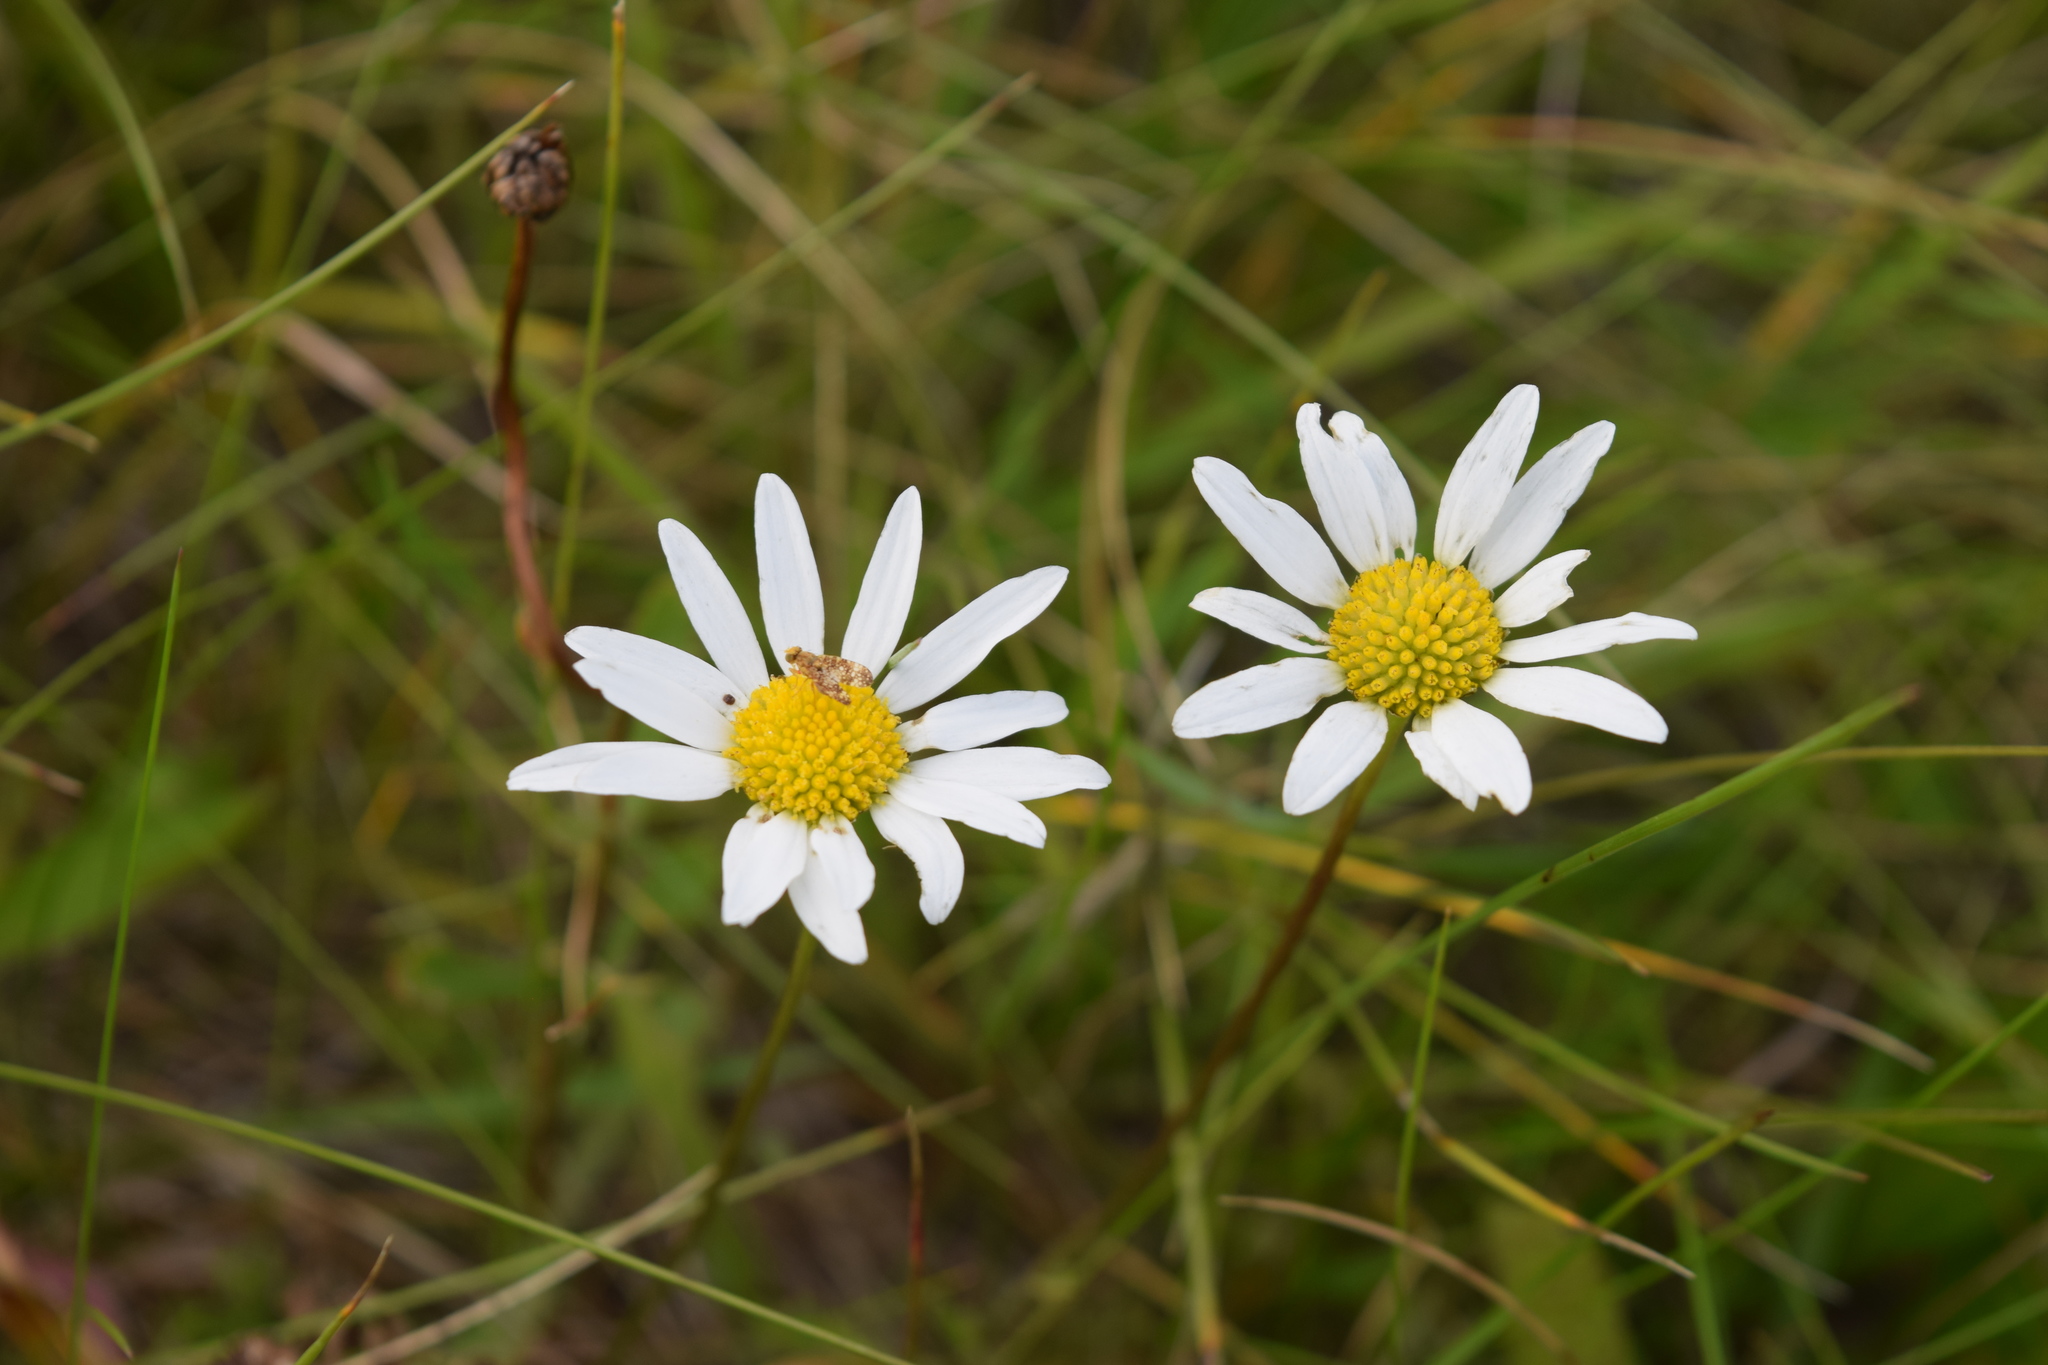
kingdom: Plantae
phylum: Tracheophyta
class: Magnoliopsida
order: Asterales
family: Asteraceae
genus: Leucanthemum
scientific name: Leucanthemum vulgare
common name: Oxeye daisy
